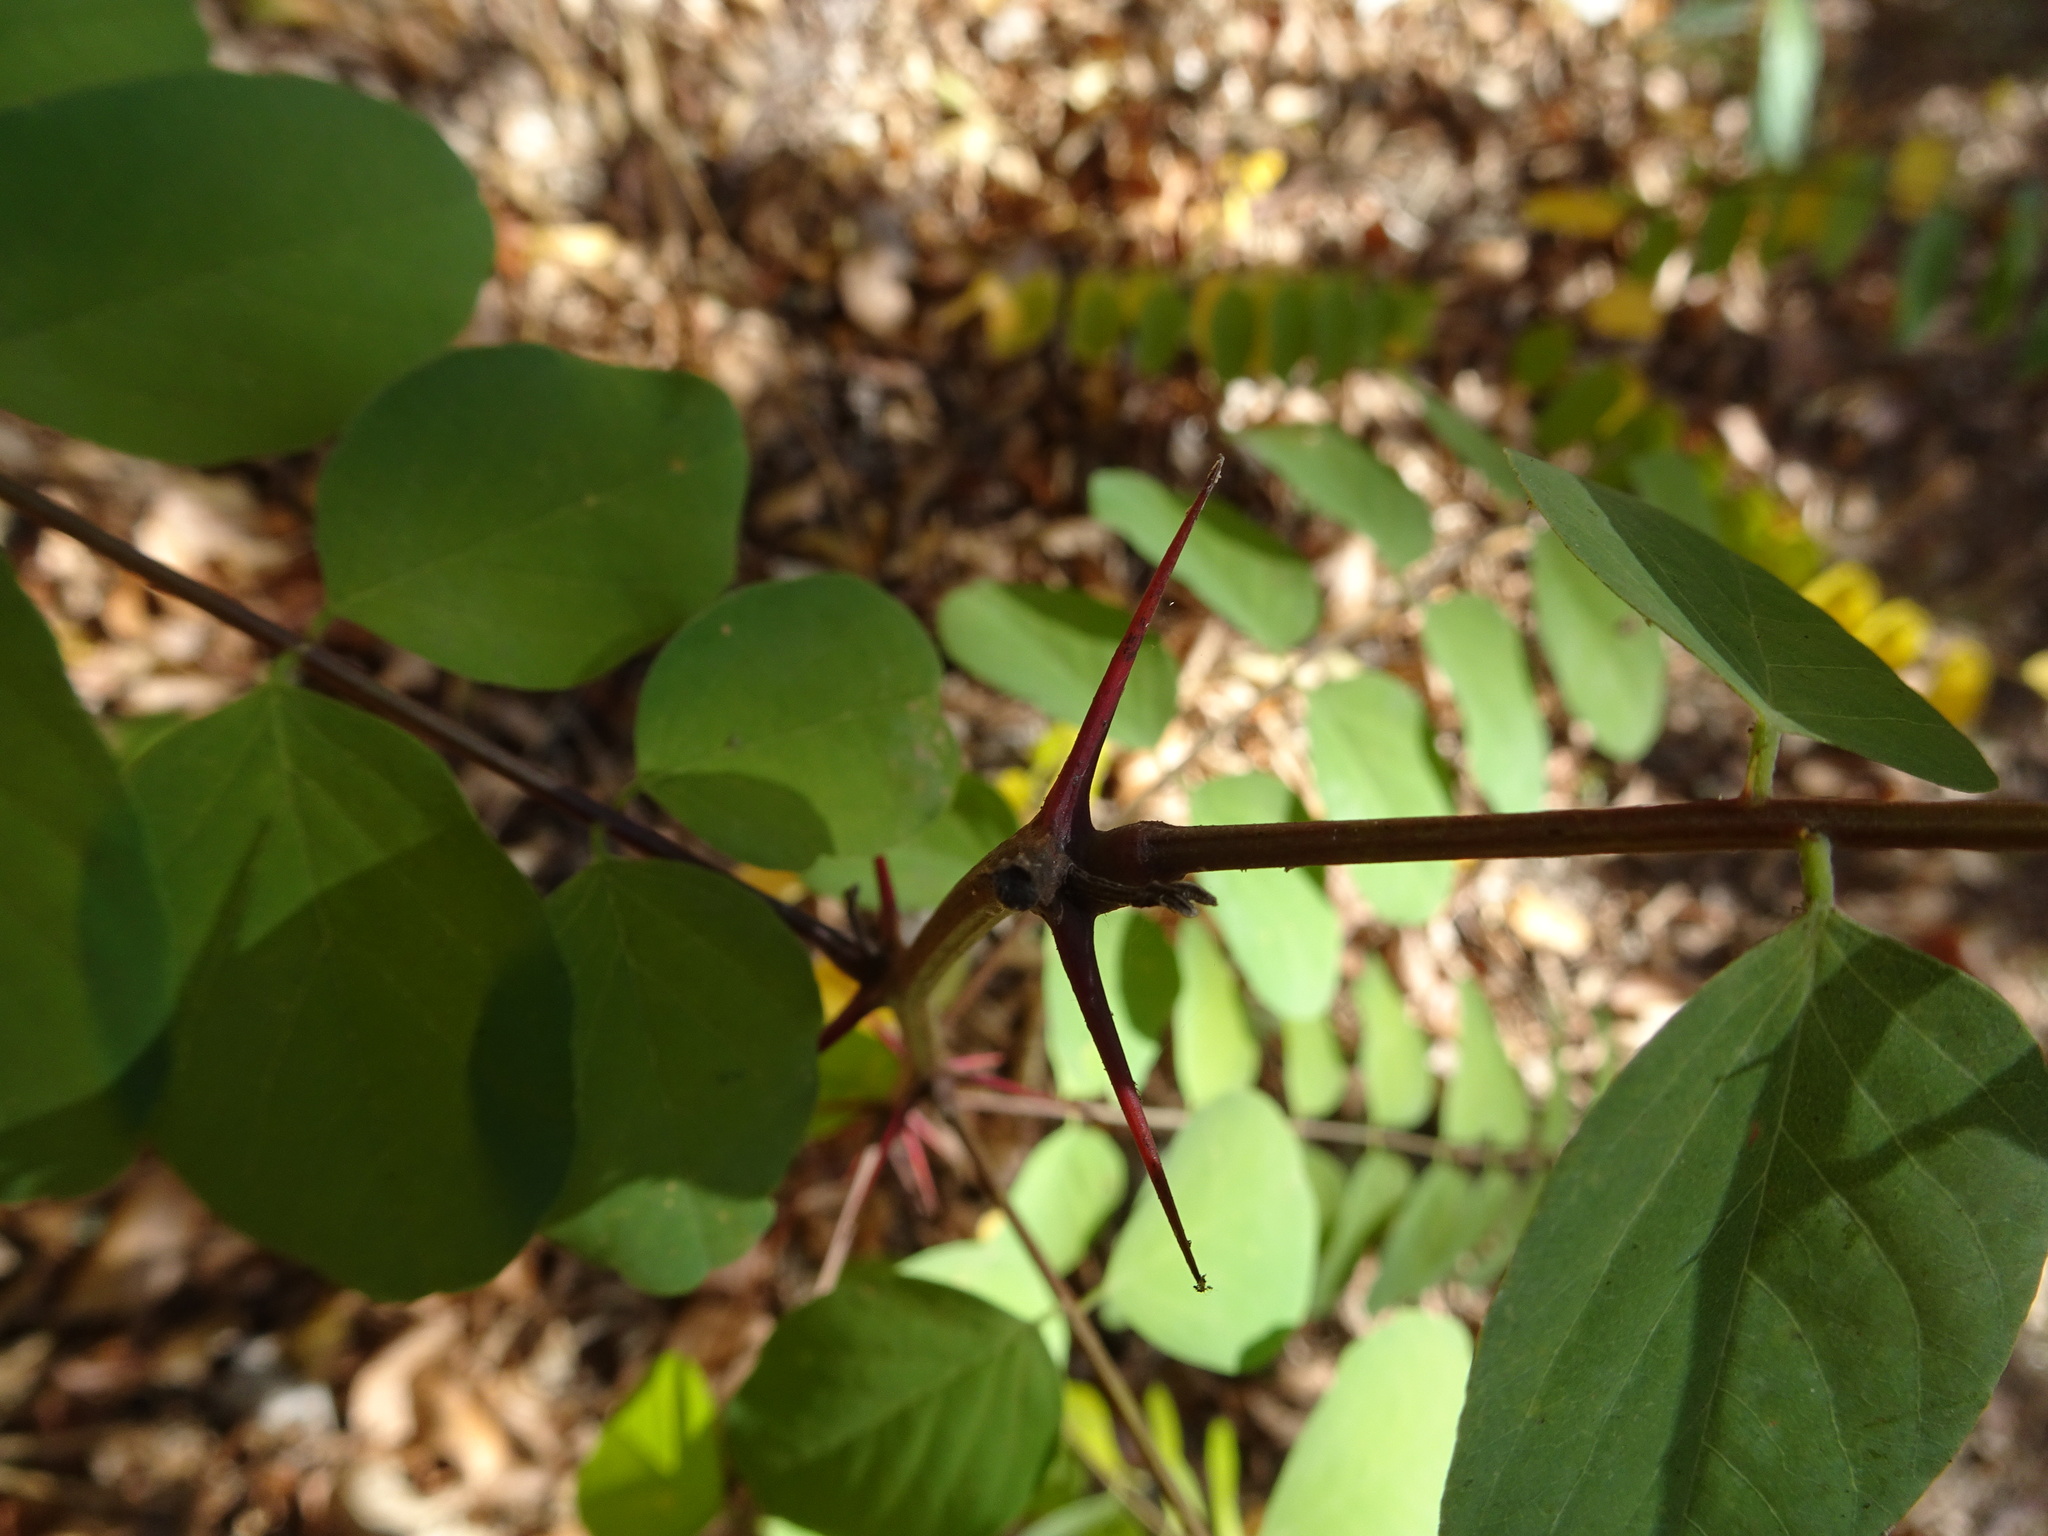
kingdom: Plantae
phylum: Tracheophyta
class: Magnoliopsida
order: Fabales
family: Fabaceae
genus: Robinia
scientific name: Robinia pseudoacacia
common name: Black locust
